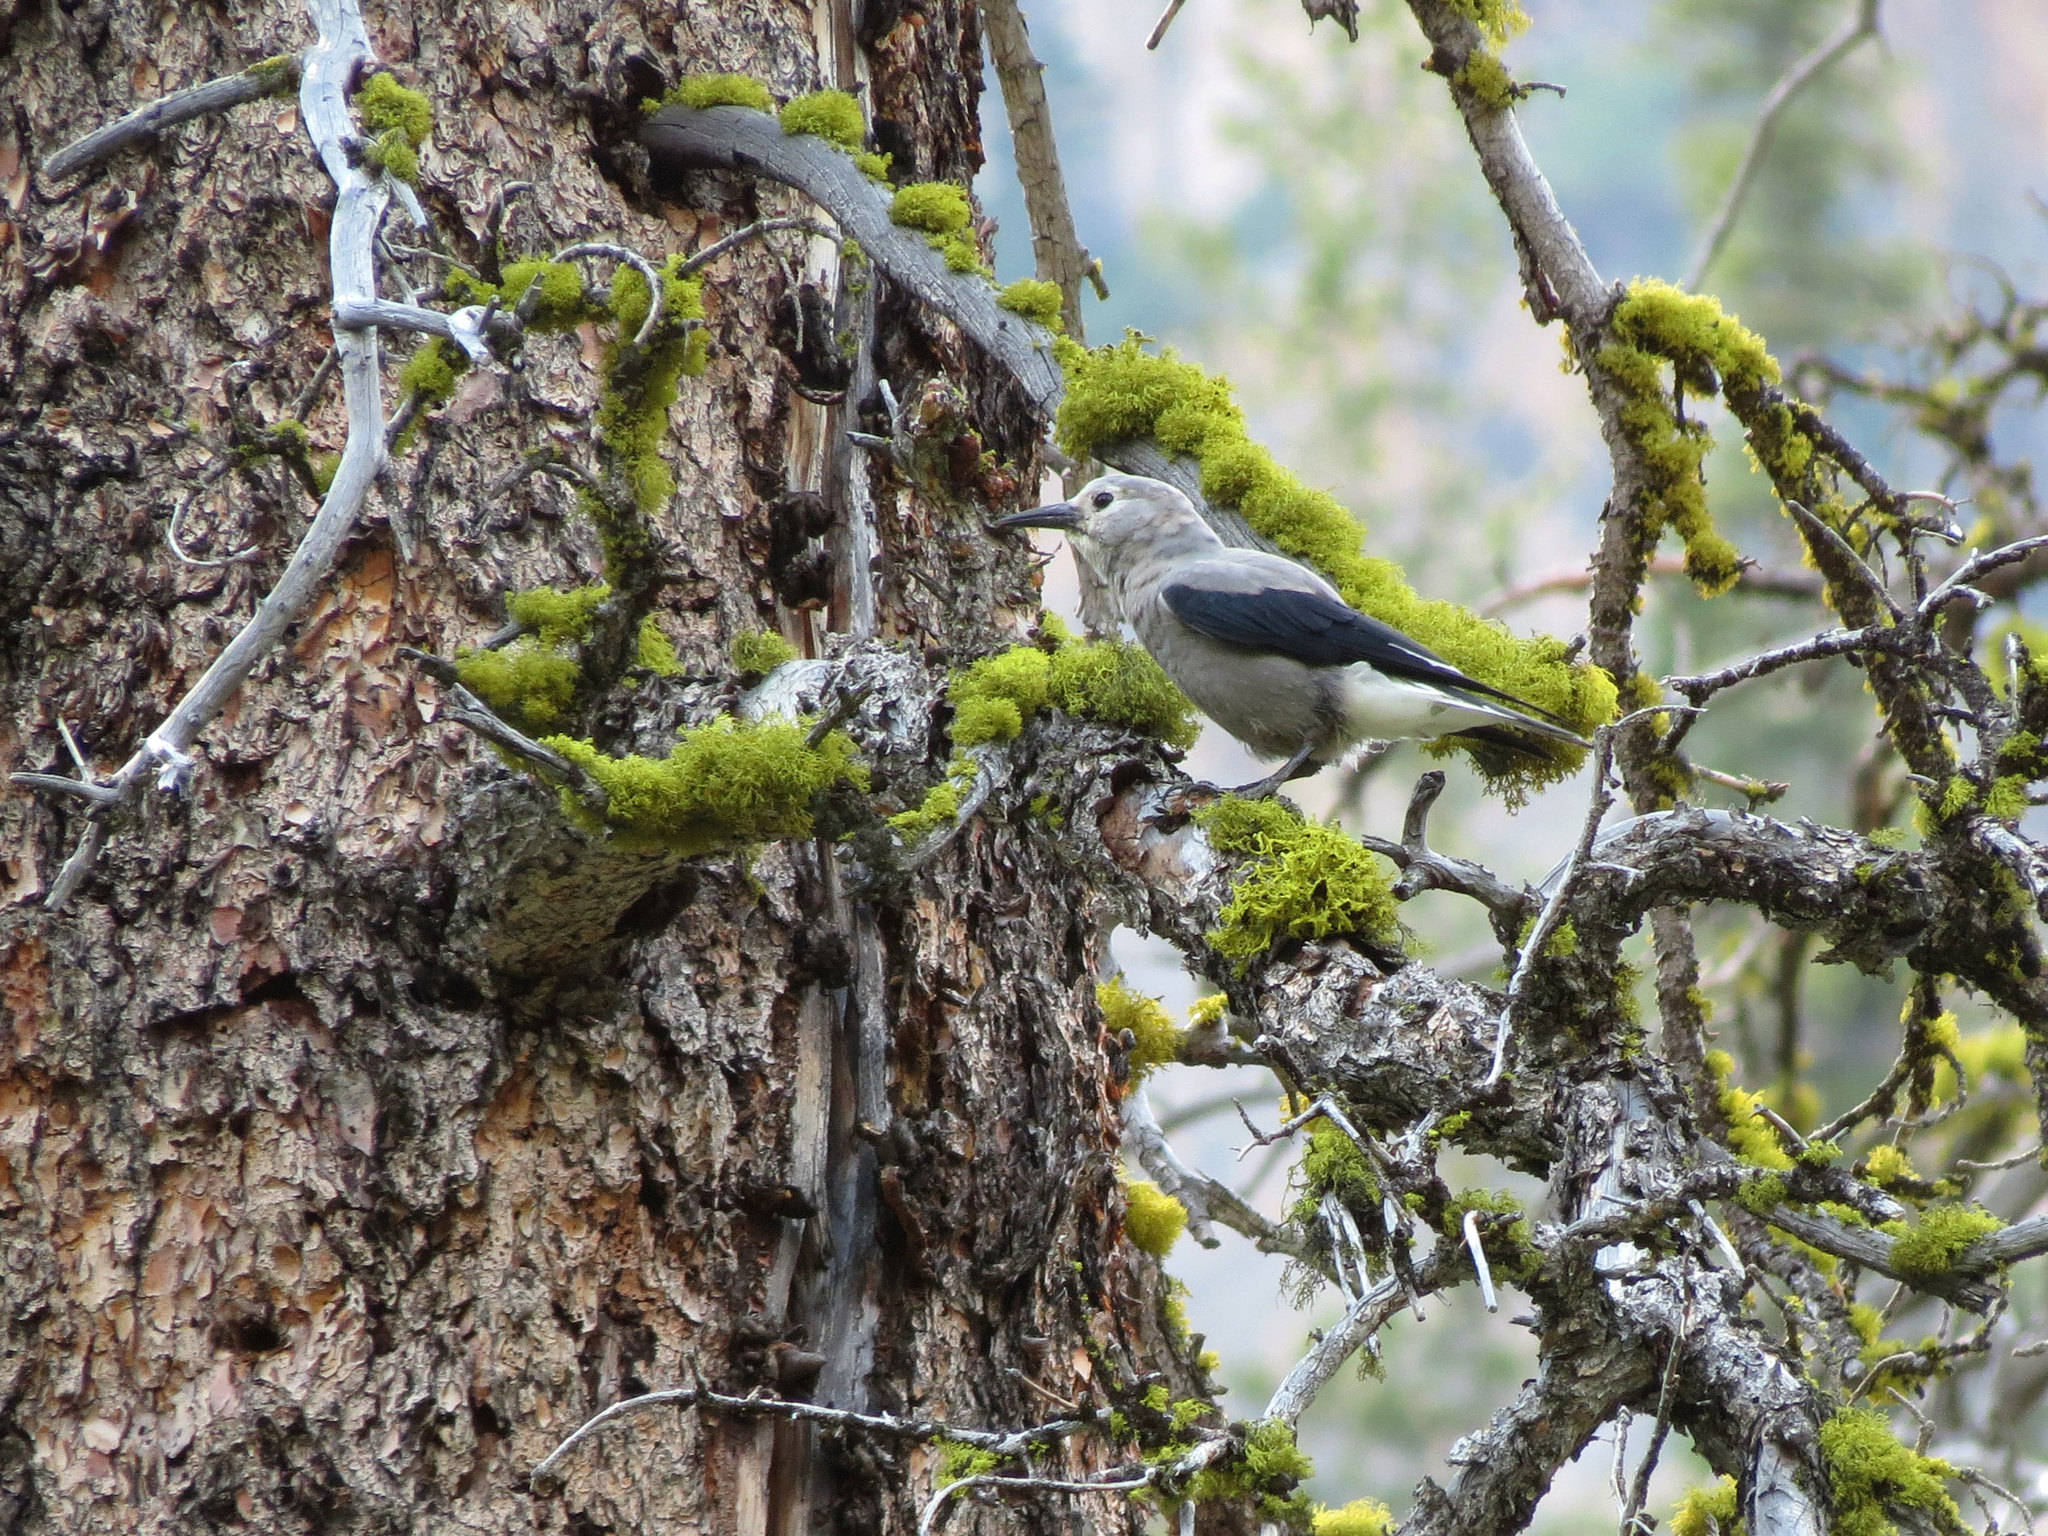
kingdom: Animalia
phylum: Chordata
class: Aves
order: Passeriformes
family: Corvidae
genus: Nucifraga
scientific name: Nucifraga columbiana
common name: Clark's nutcracker
